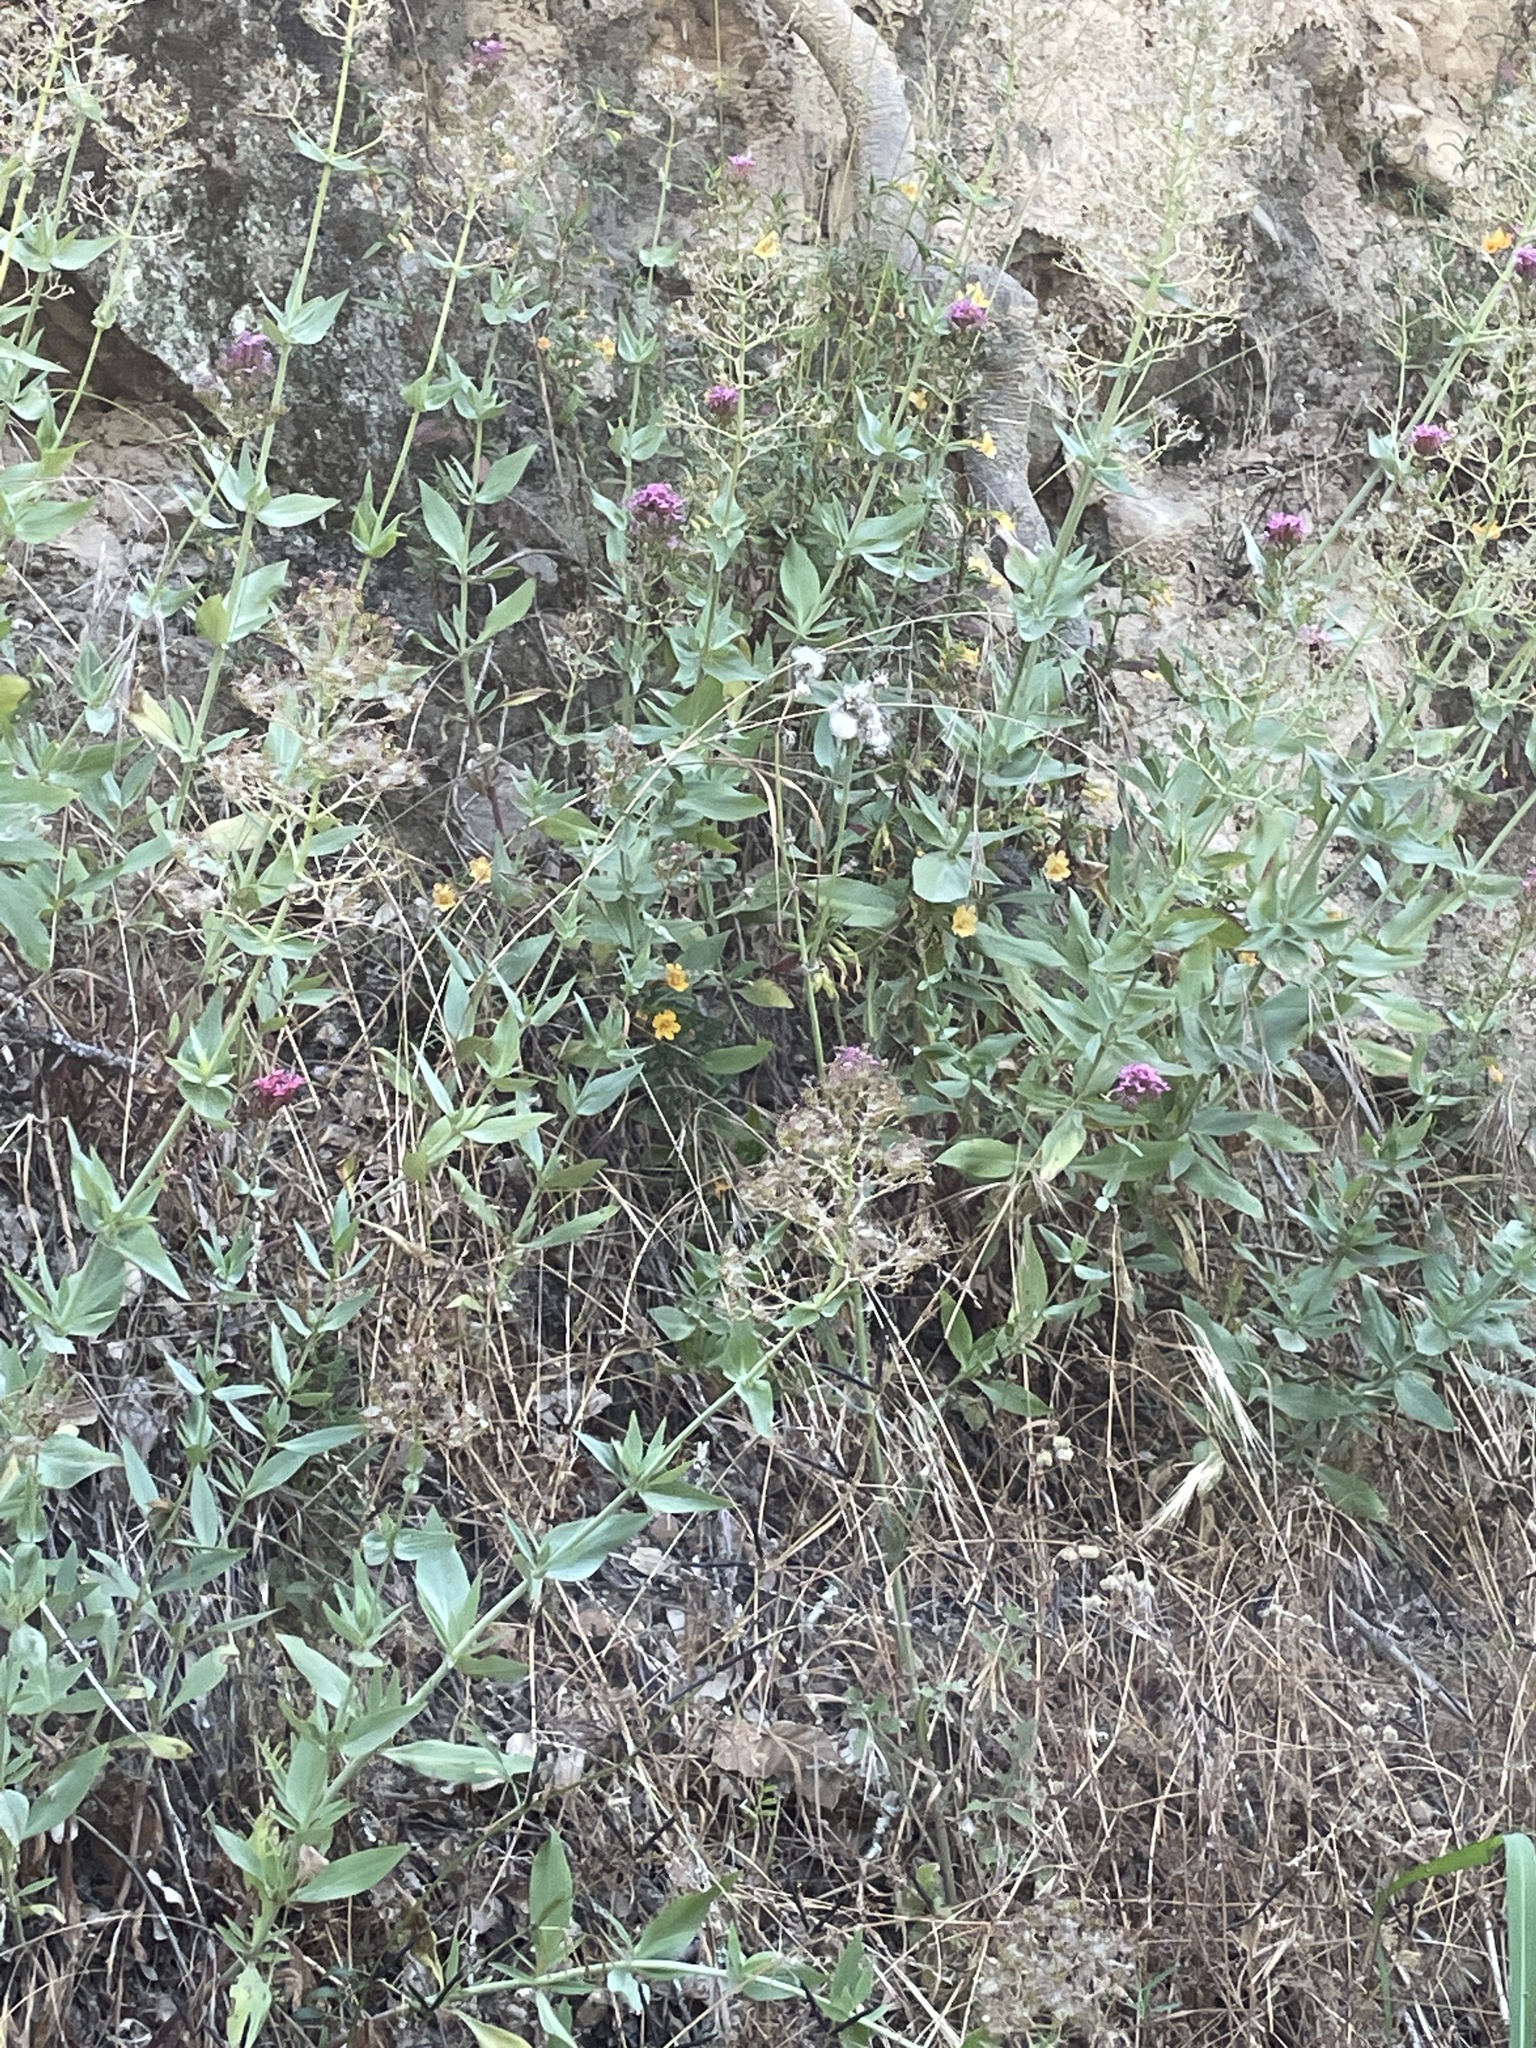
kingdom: Plantae
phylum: Tracheophyta
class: Magnoliopsida
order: Lamiales
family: Phrymaceae
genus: Diplacus
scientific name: Diplacus aurantiacus
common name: Bush monkey-flower
